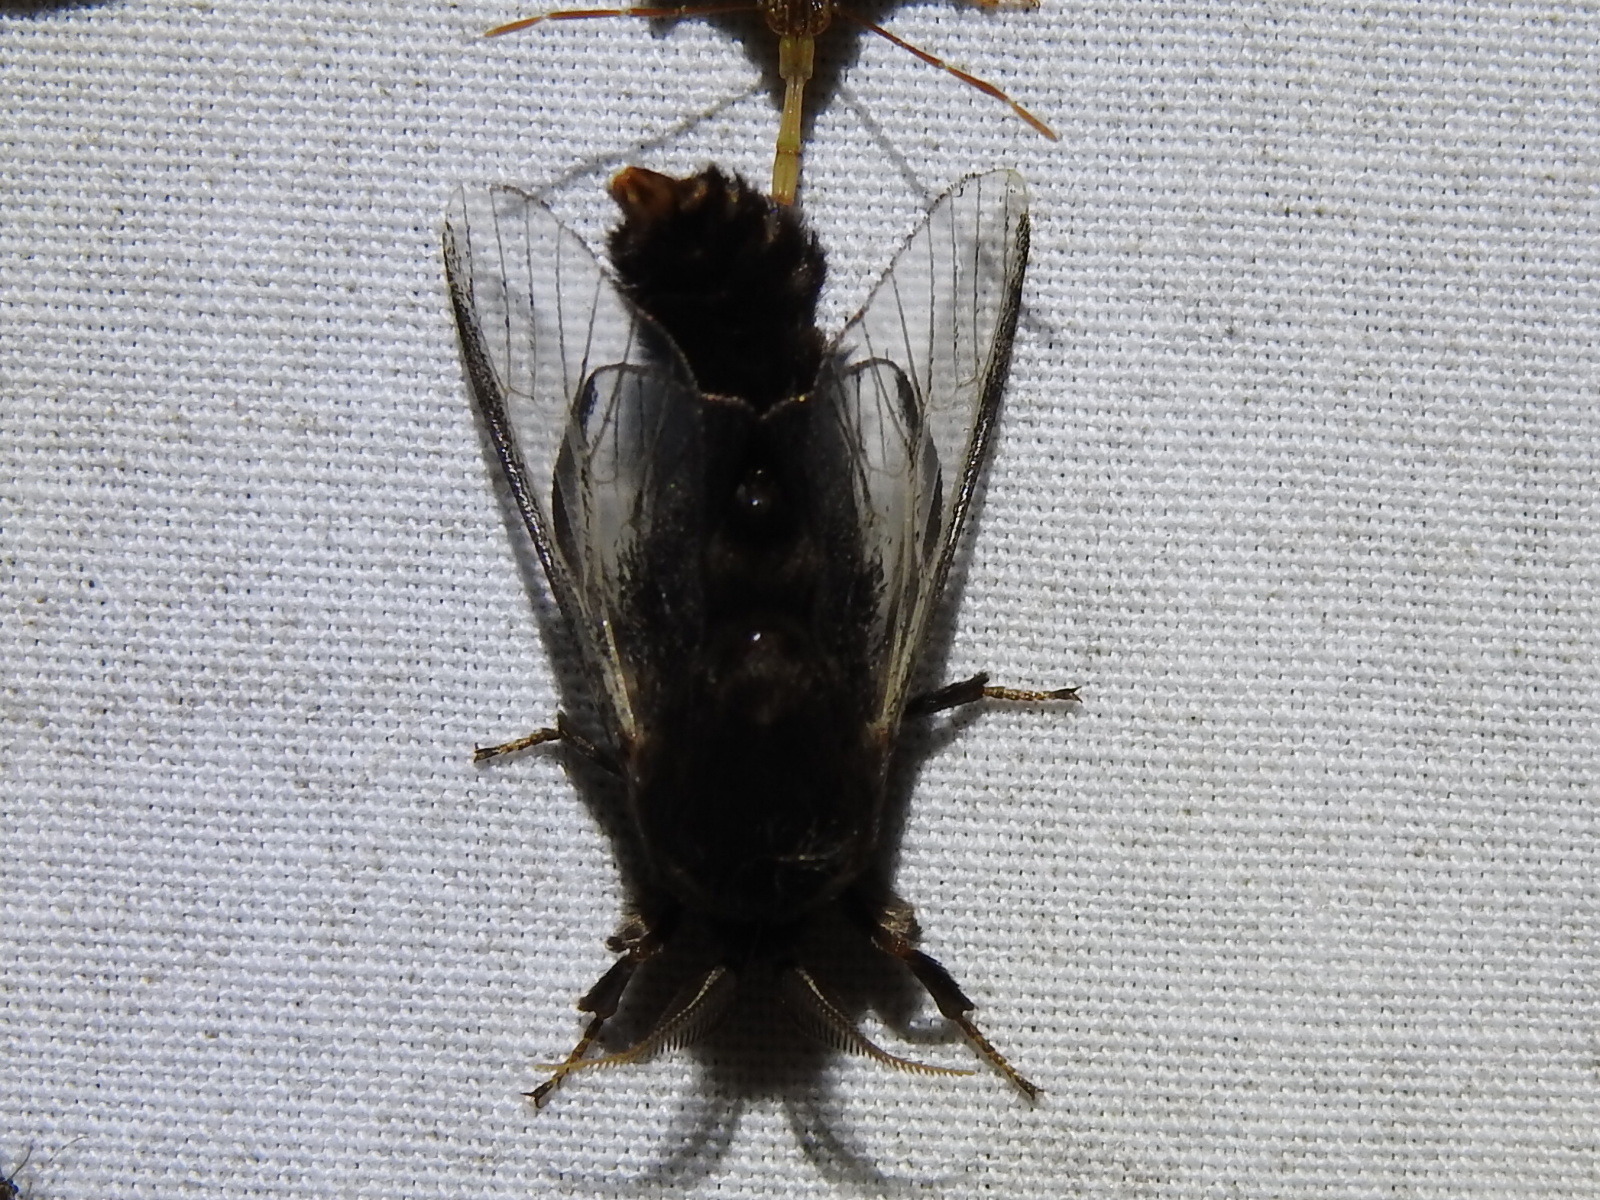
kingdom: Animalia
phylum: Arthropoda
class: Insecta
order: Lepidoptera
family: Psychidae
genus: Thyridopteryx
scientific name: Thyridopteryx ephemeraeformis
